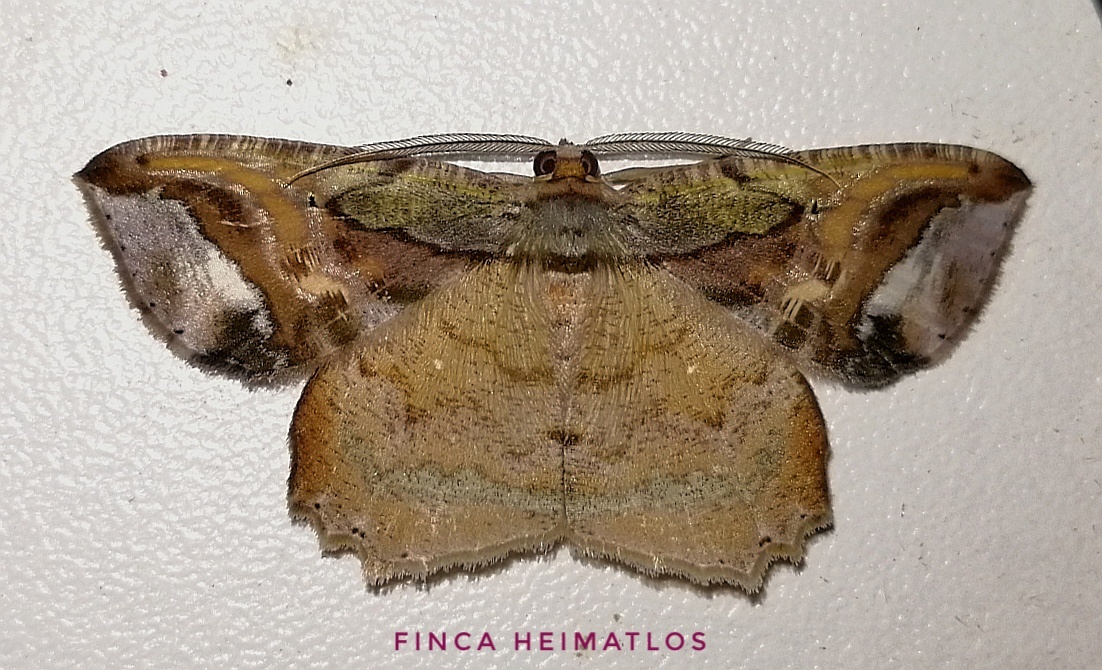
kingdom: Animalia
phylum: Arthropoda
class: Insecta
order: Lepidoptera
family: Geometridae
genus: Thysanopyga
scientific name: Thysanopyga
